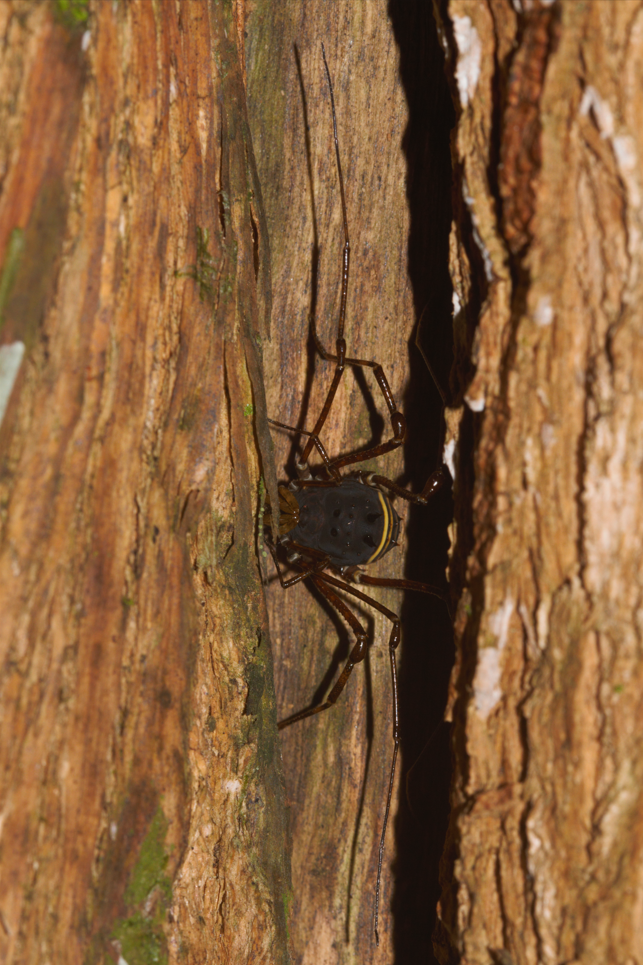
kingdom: Animalia
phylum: Arthropoda
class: Arachnida
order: Opiliones
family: Manaosbiidae
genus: Rhopalocranaus
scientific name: Rhopalocranaus marginatus
